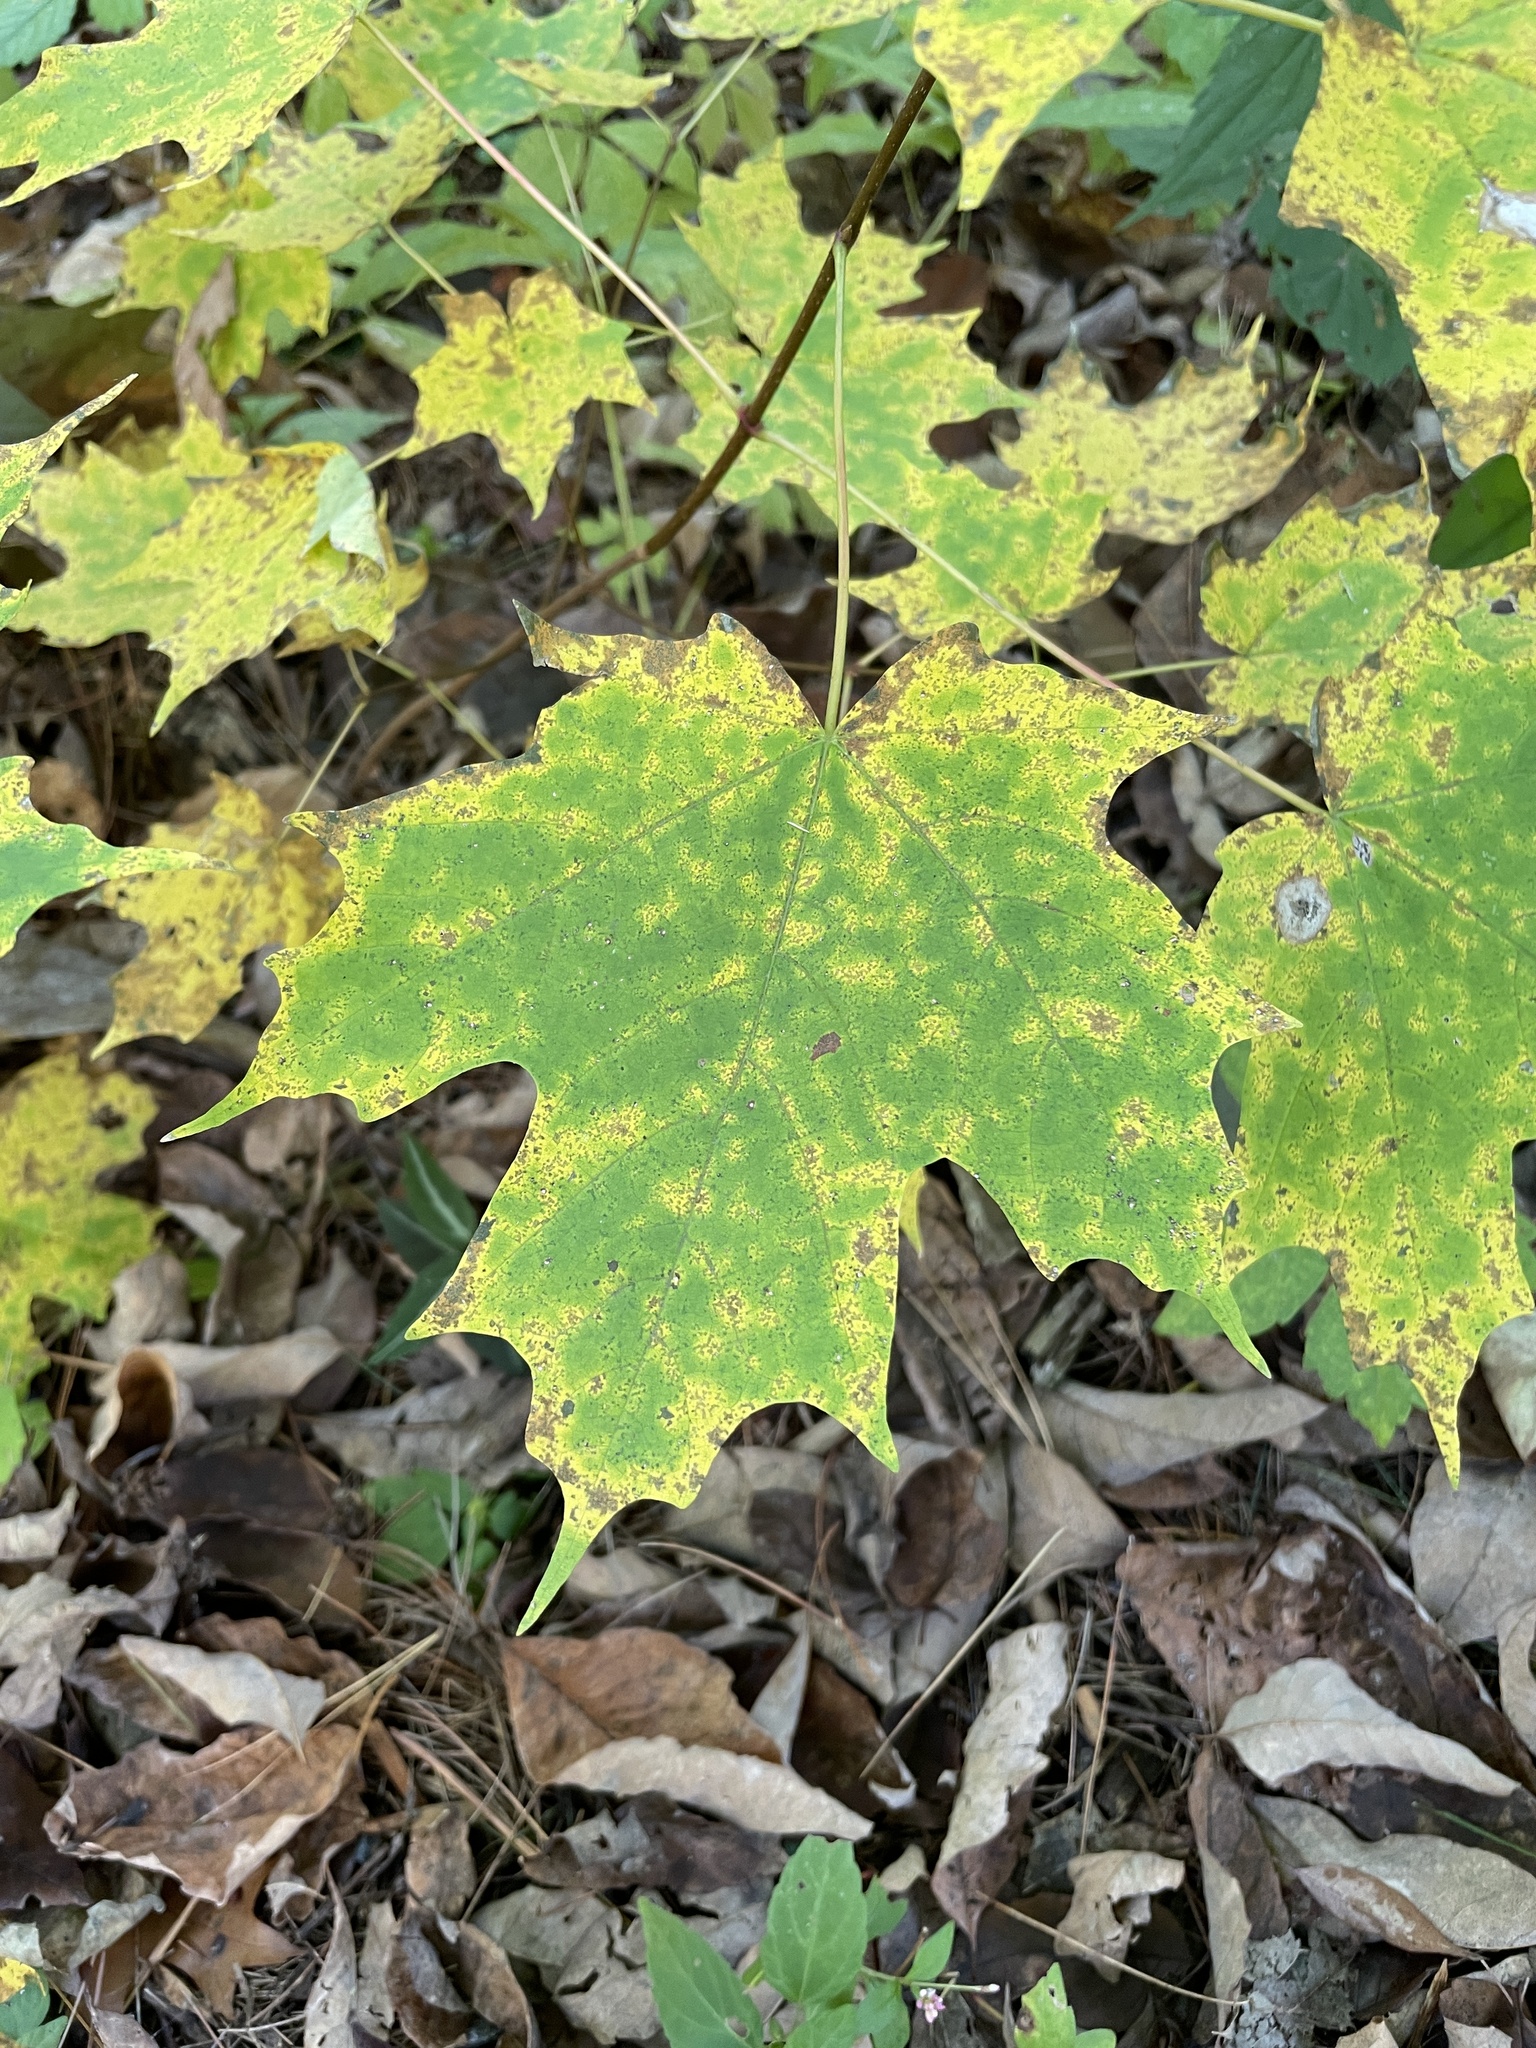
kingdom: Plantae
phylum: Tracheophyta
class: Magnoliopsida
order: Sapindales
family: Sapindaceae
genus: Acer
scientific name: Acer saccharum
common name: Sugar maple
